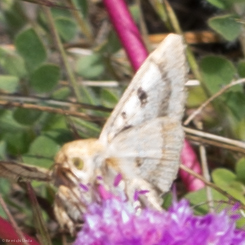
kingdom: Animalia
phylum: Arthropoda
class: Insecta
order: Lepidoptera
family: Noctuidae
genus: Heliothis
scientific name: Heliothis phloxiphaga
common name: Darker spotted straw moth
